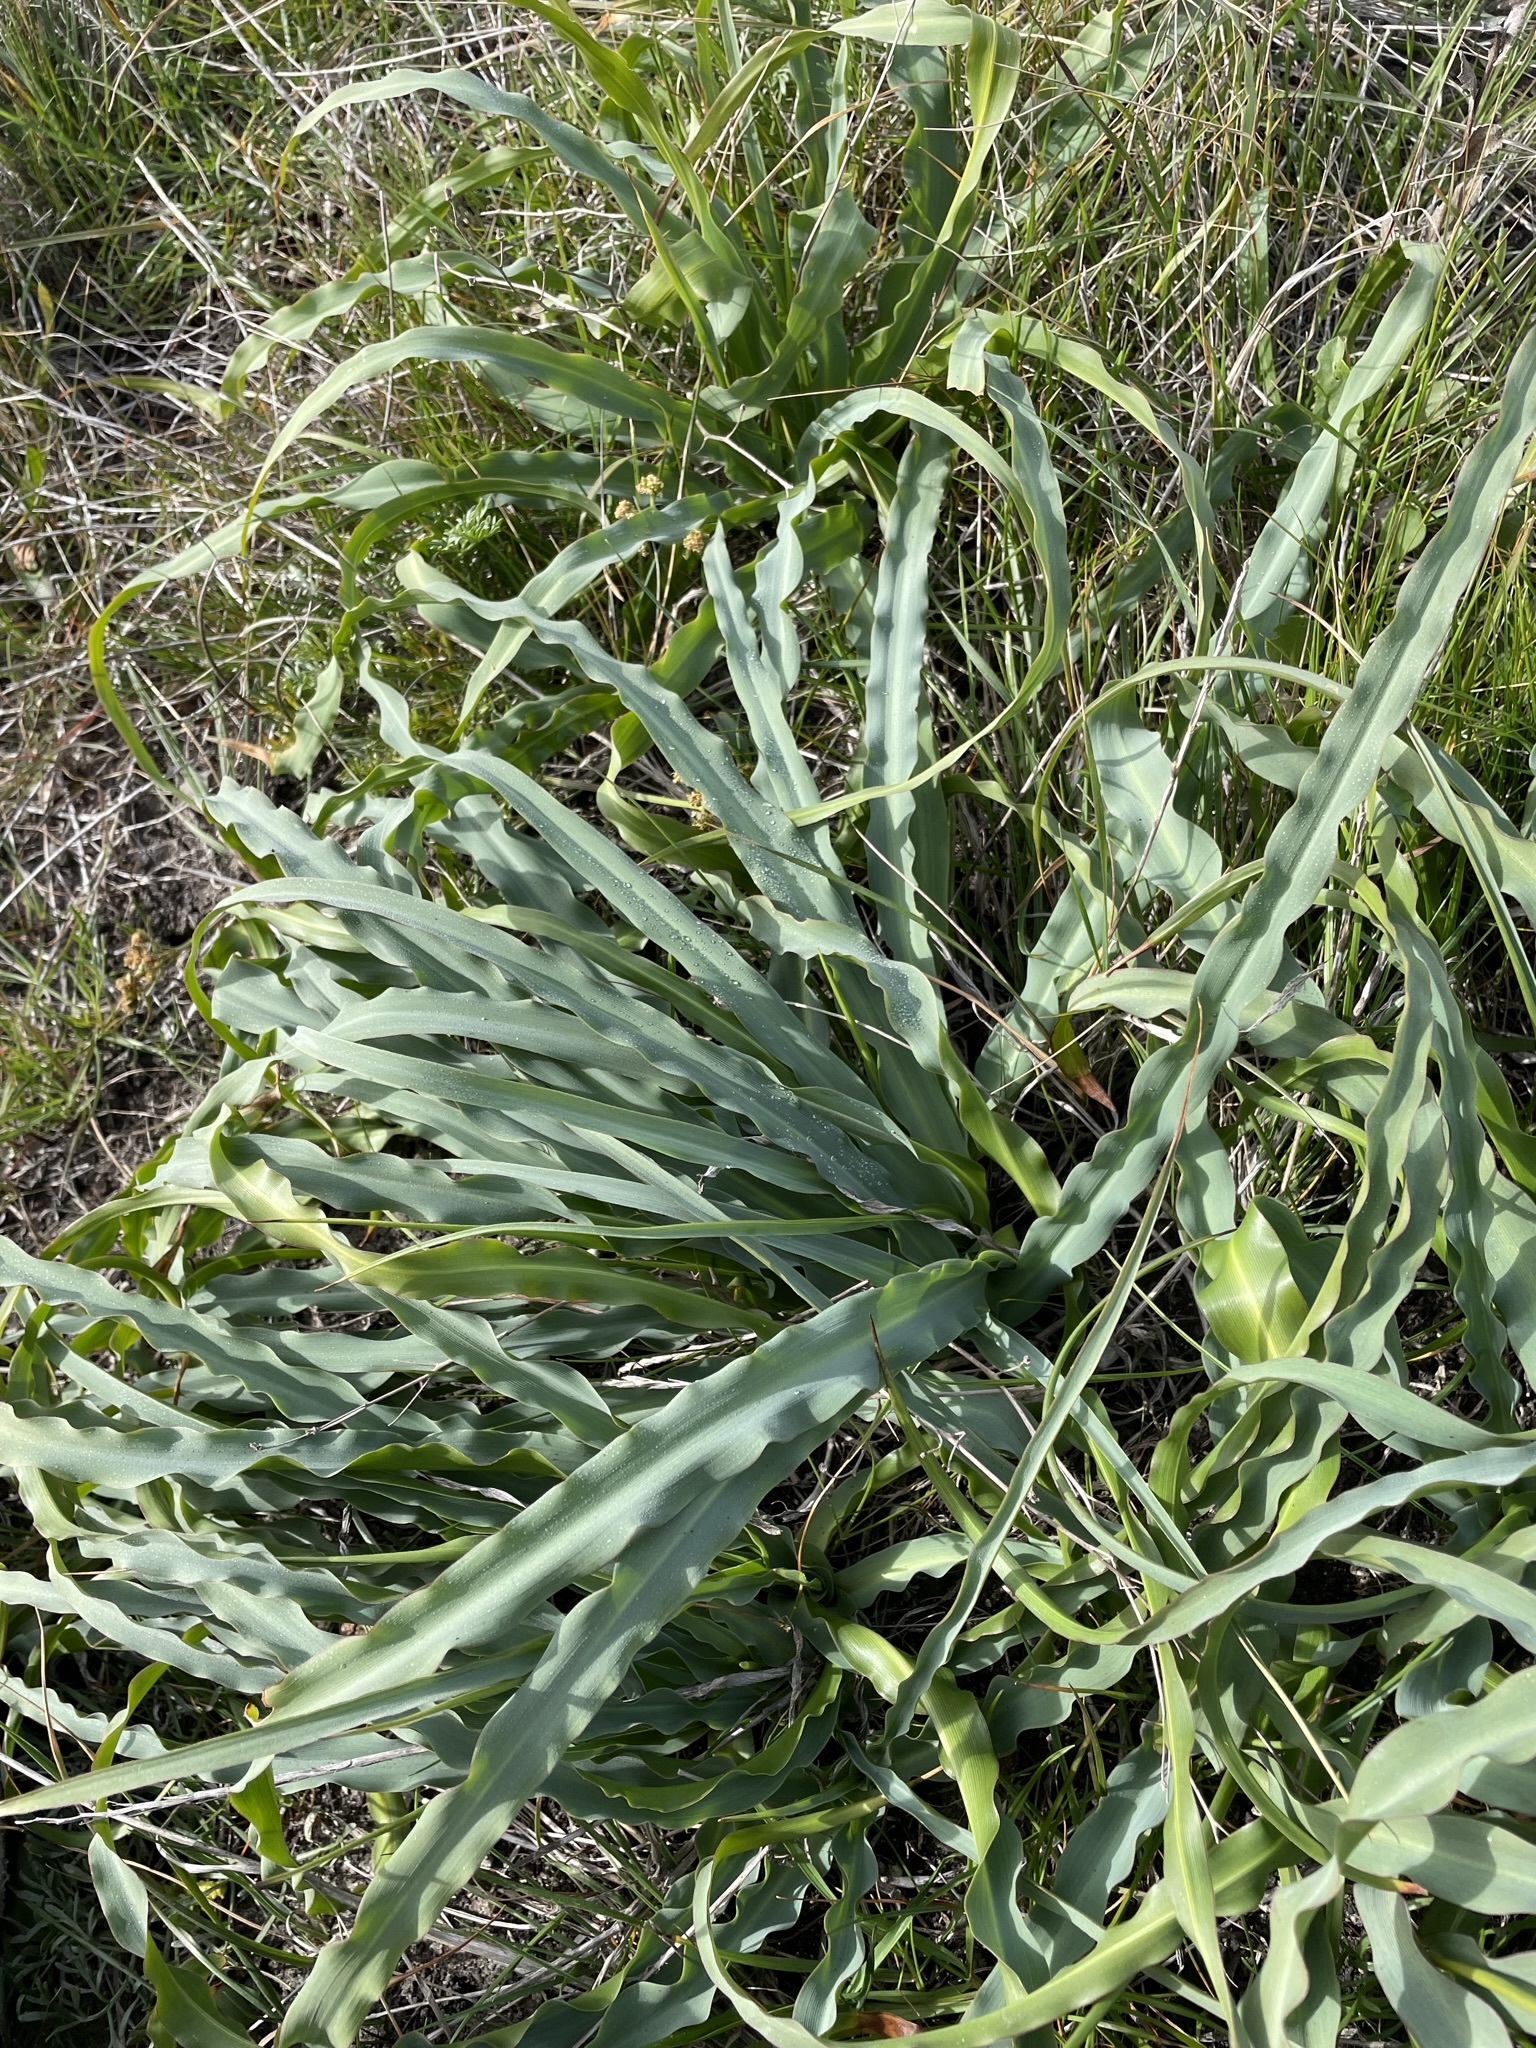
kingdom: Plantae
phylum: Tracheophyta
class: Liliopsida
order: Asparagales
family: Asparagaceae
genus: Chlorogalum
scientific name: Chlorogalum pomeridianum
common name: Amole
